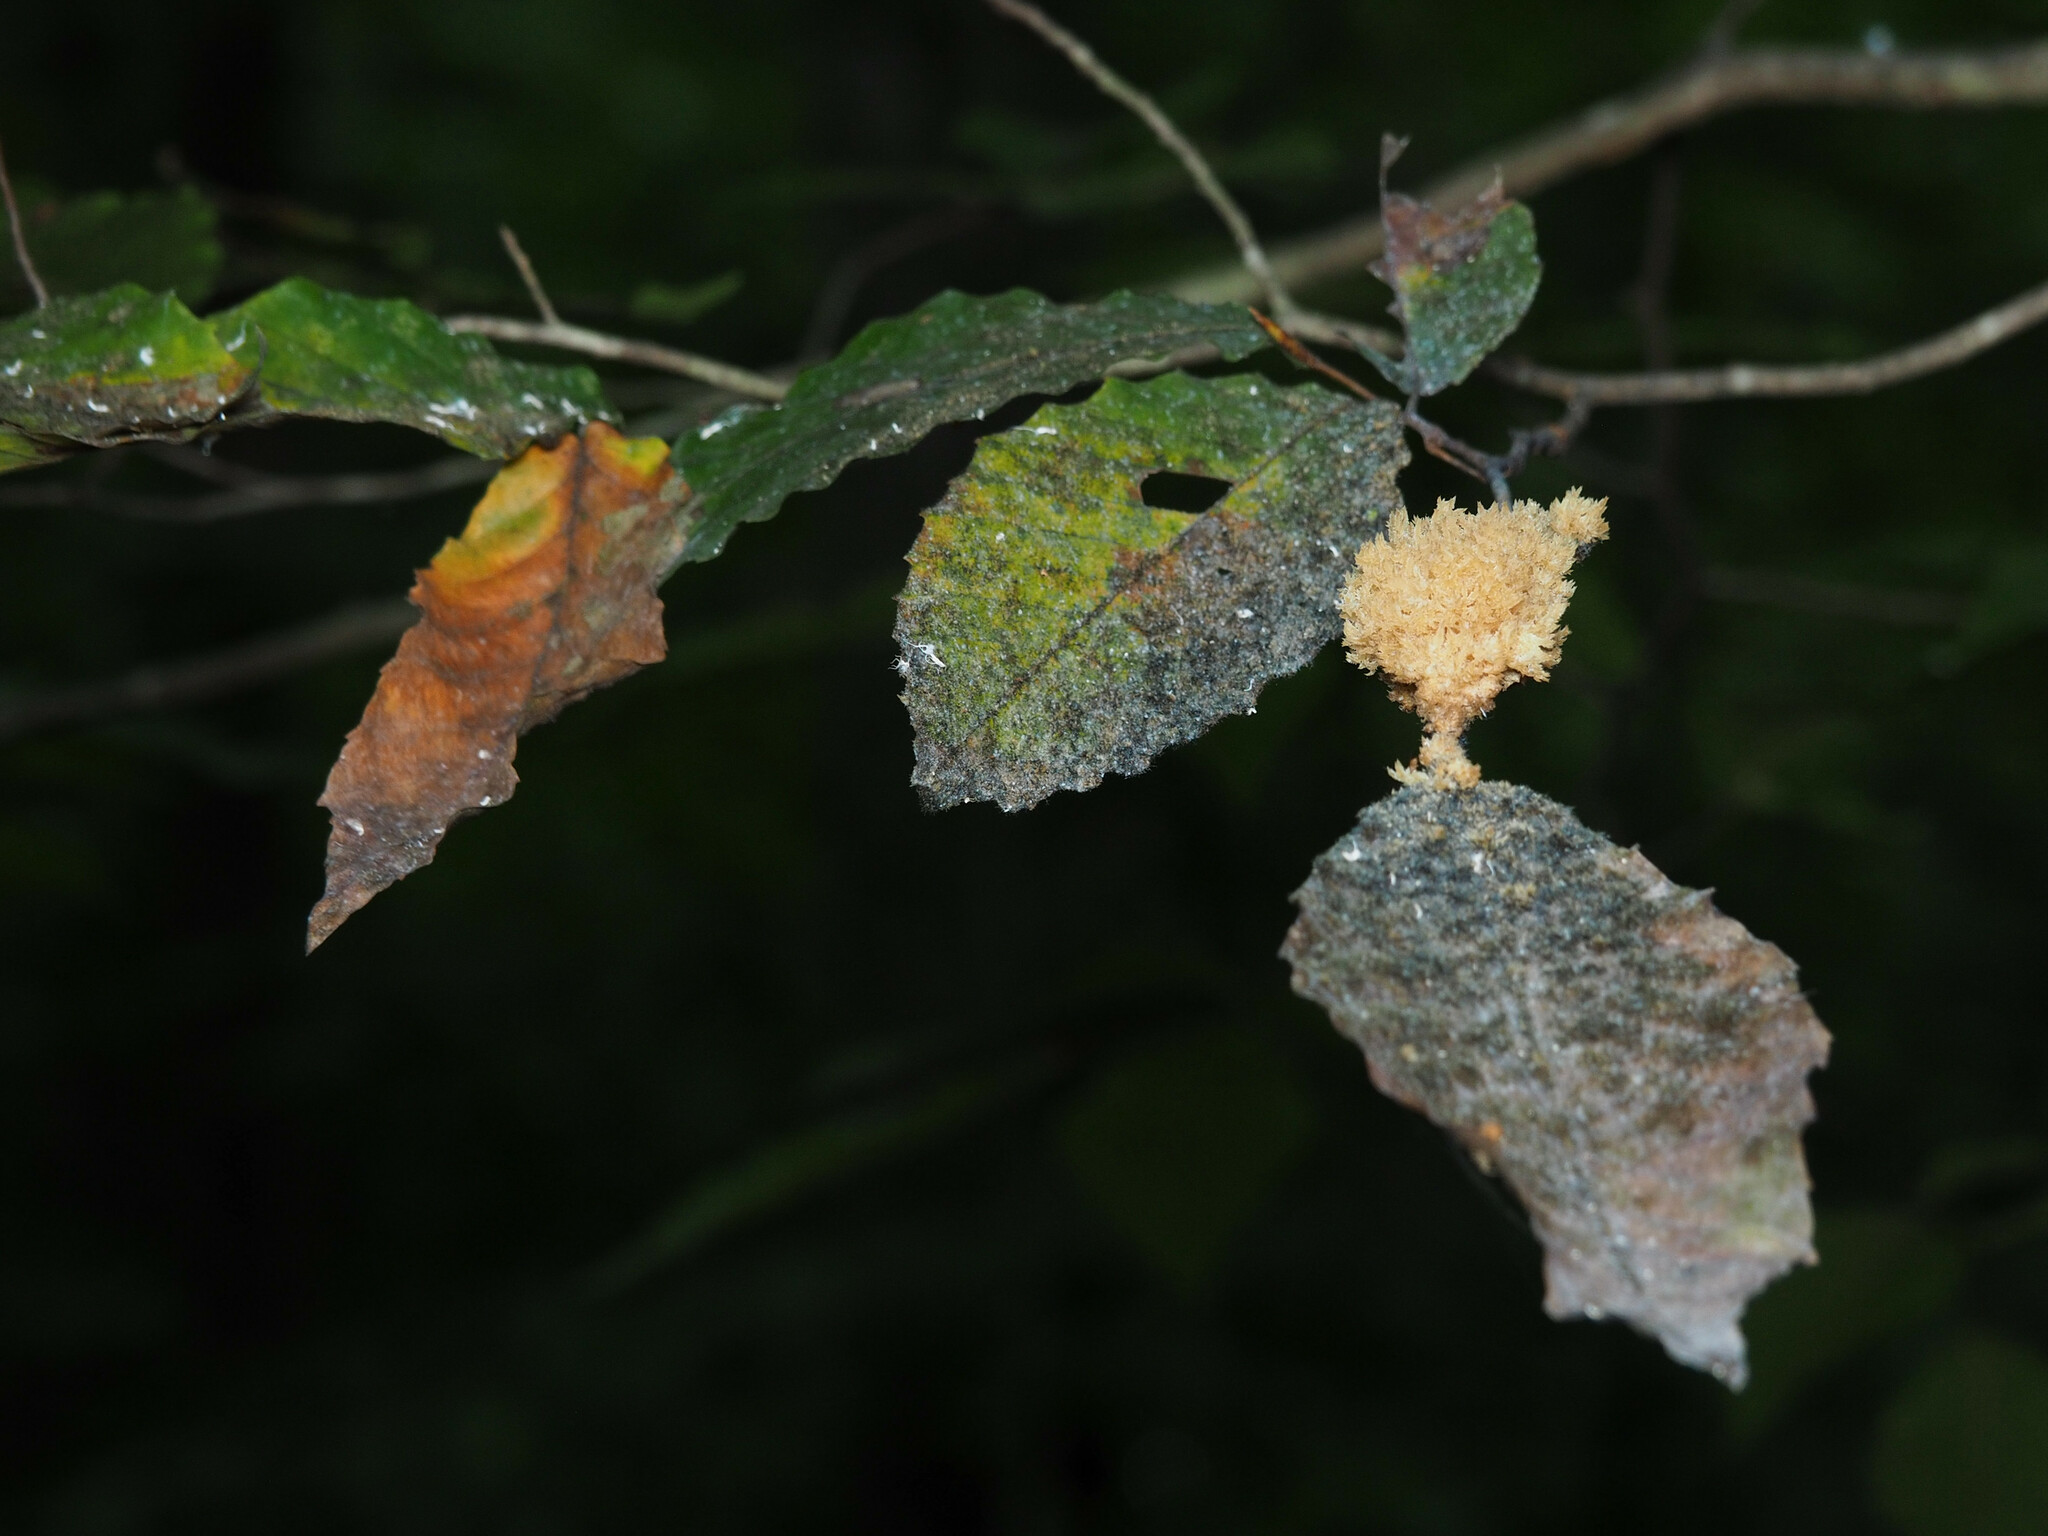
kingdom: Fungi
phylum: Ascomycota
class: Dothideomycetes
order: Capnodiales
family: Capnodiaceae
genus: Scorias
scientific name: Scorias spongiosa
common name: Black sooty mold
